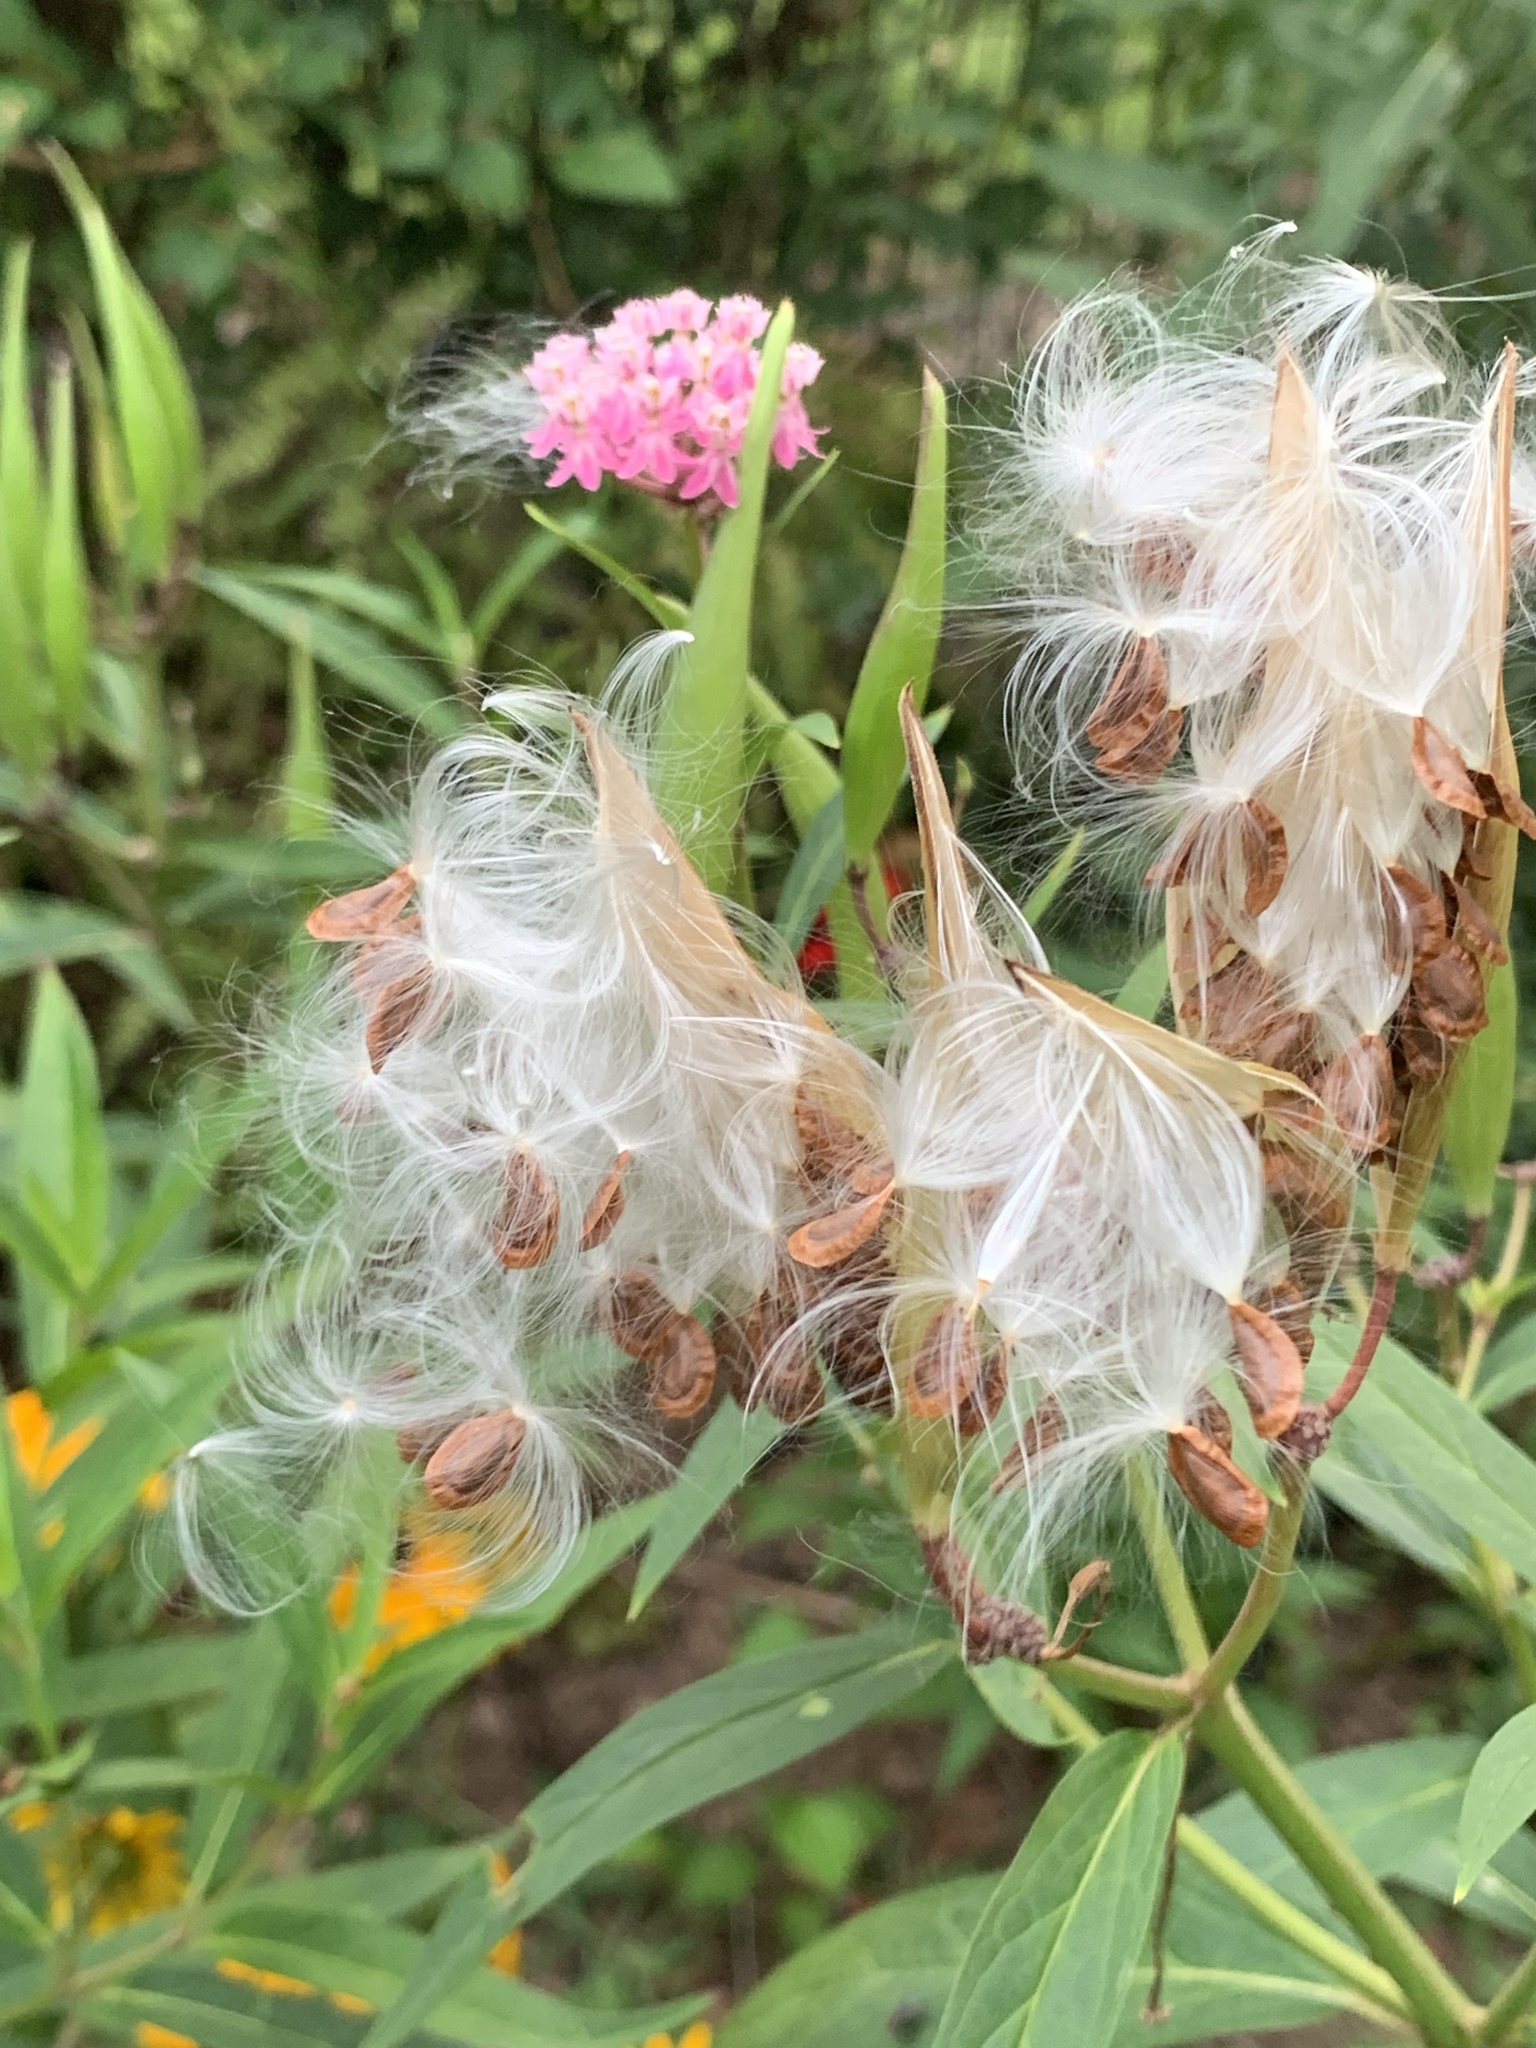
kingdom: Plantae
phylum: Tracheophyta
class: Magnoliopsida
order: Gentianales
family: Apocynaceae
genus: Asclepias
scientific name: Asclepias incarnata
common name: Swamp milkweed
